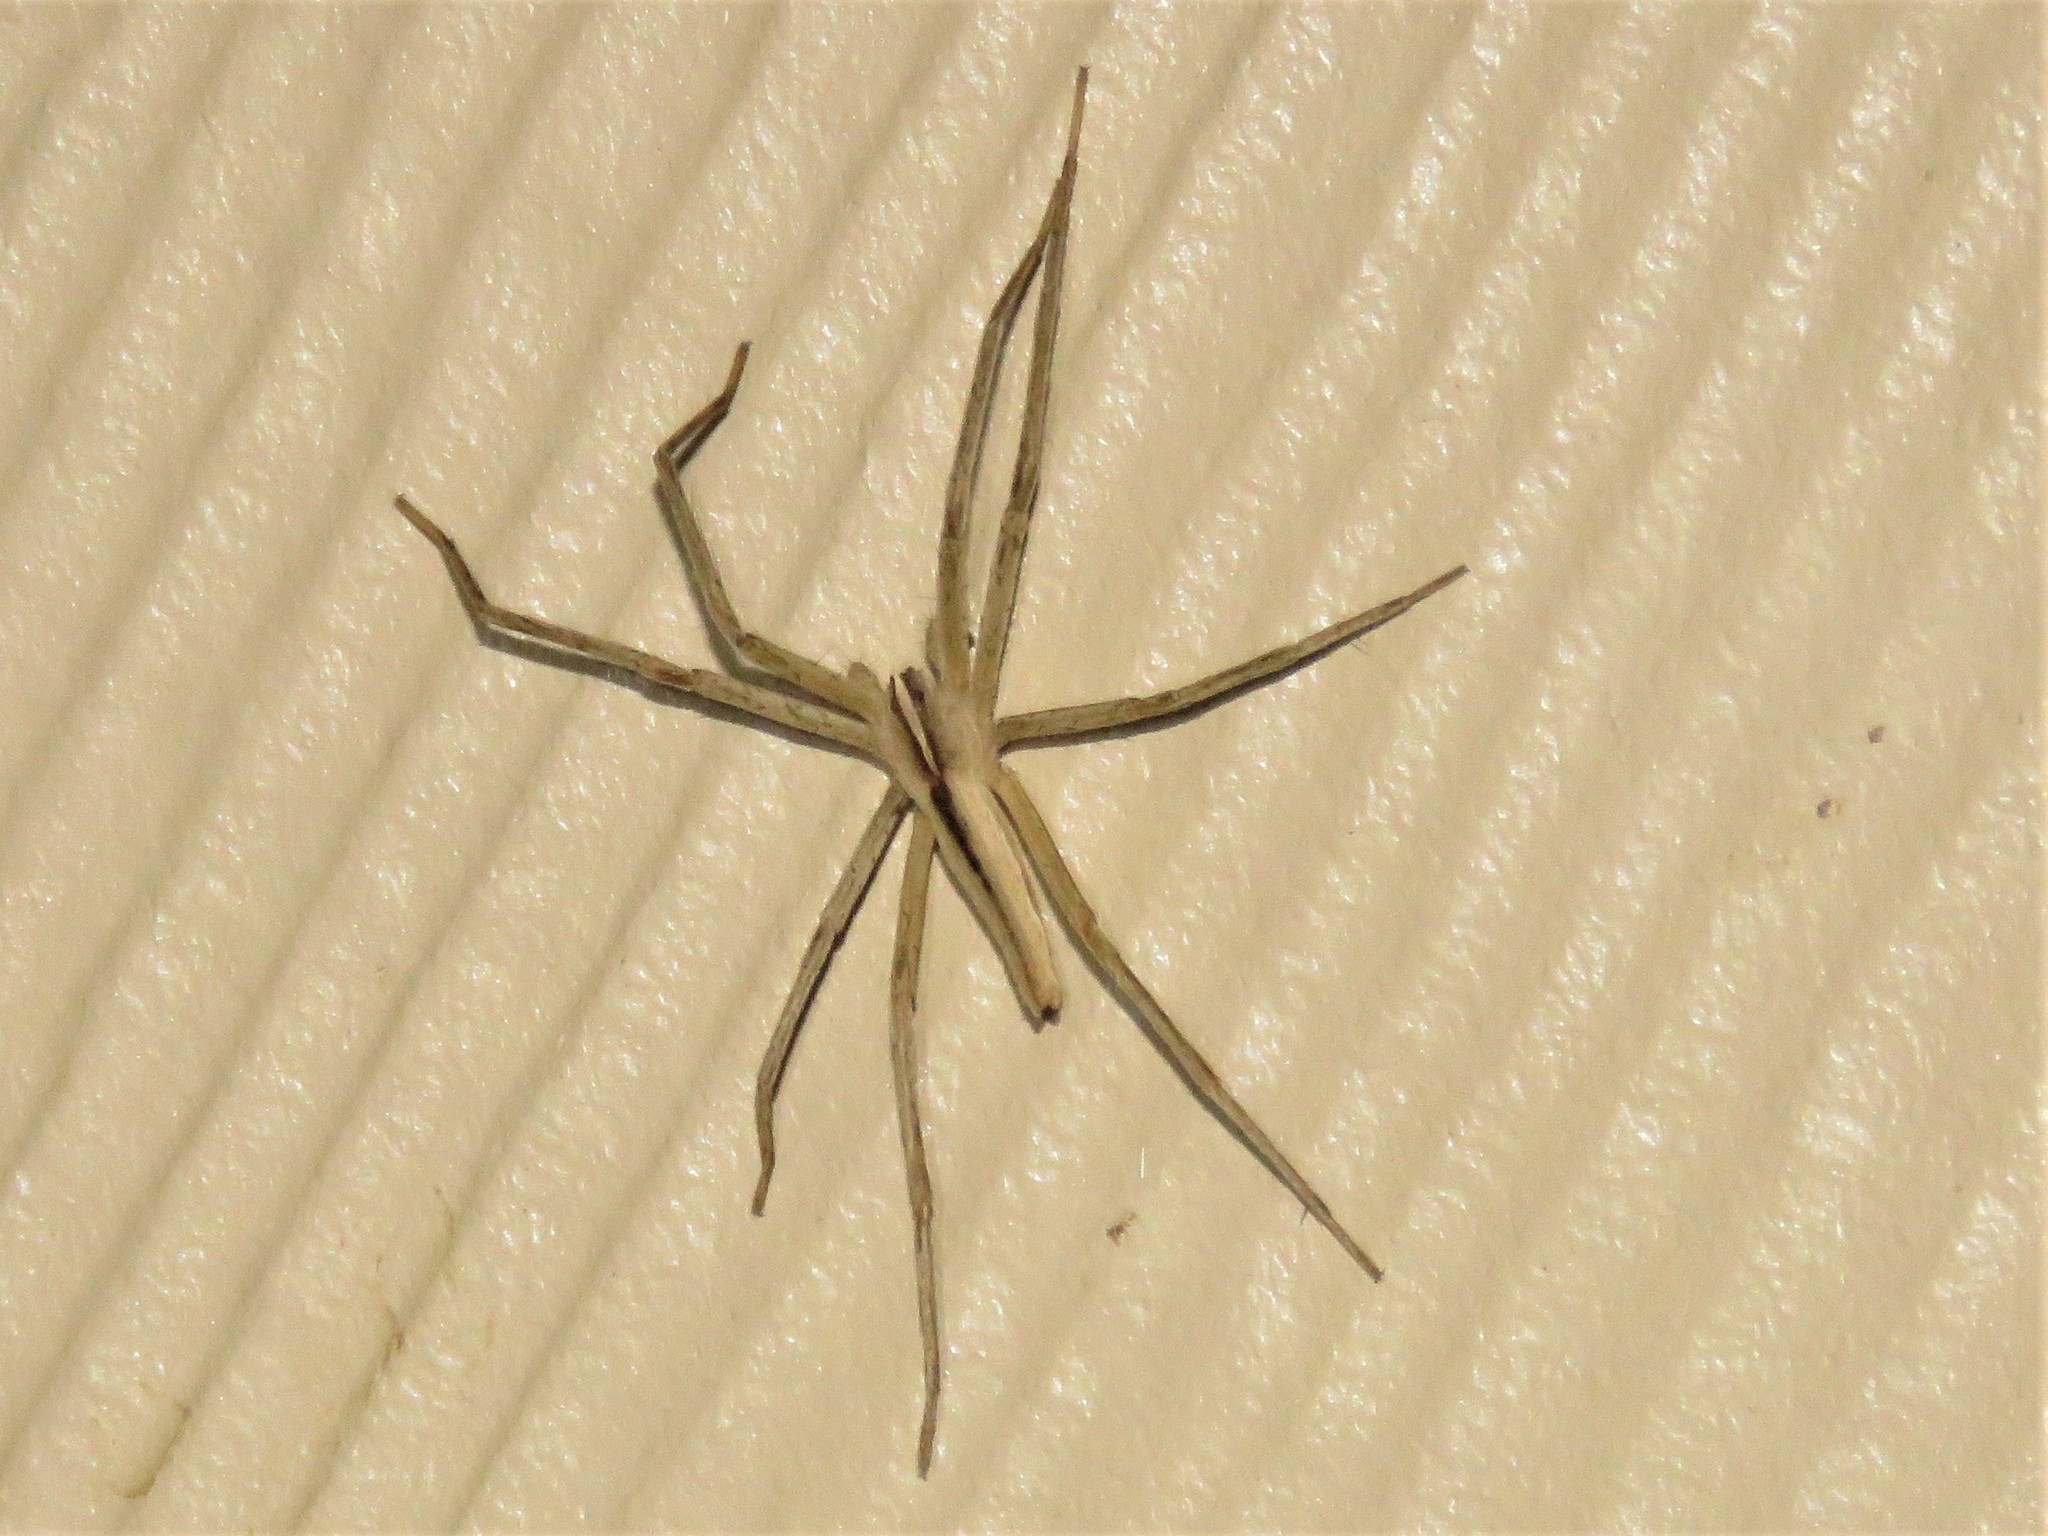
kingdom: Animalia
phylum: Arthropoda
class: Arachnida
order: Araneae
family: Pisauridae
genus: Pisaurina
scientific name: Pisaurina dubia
